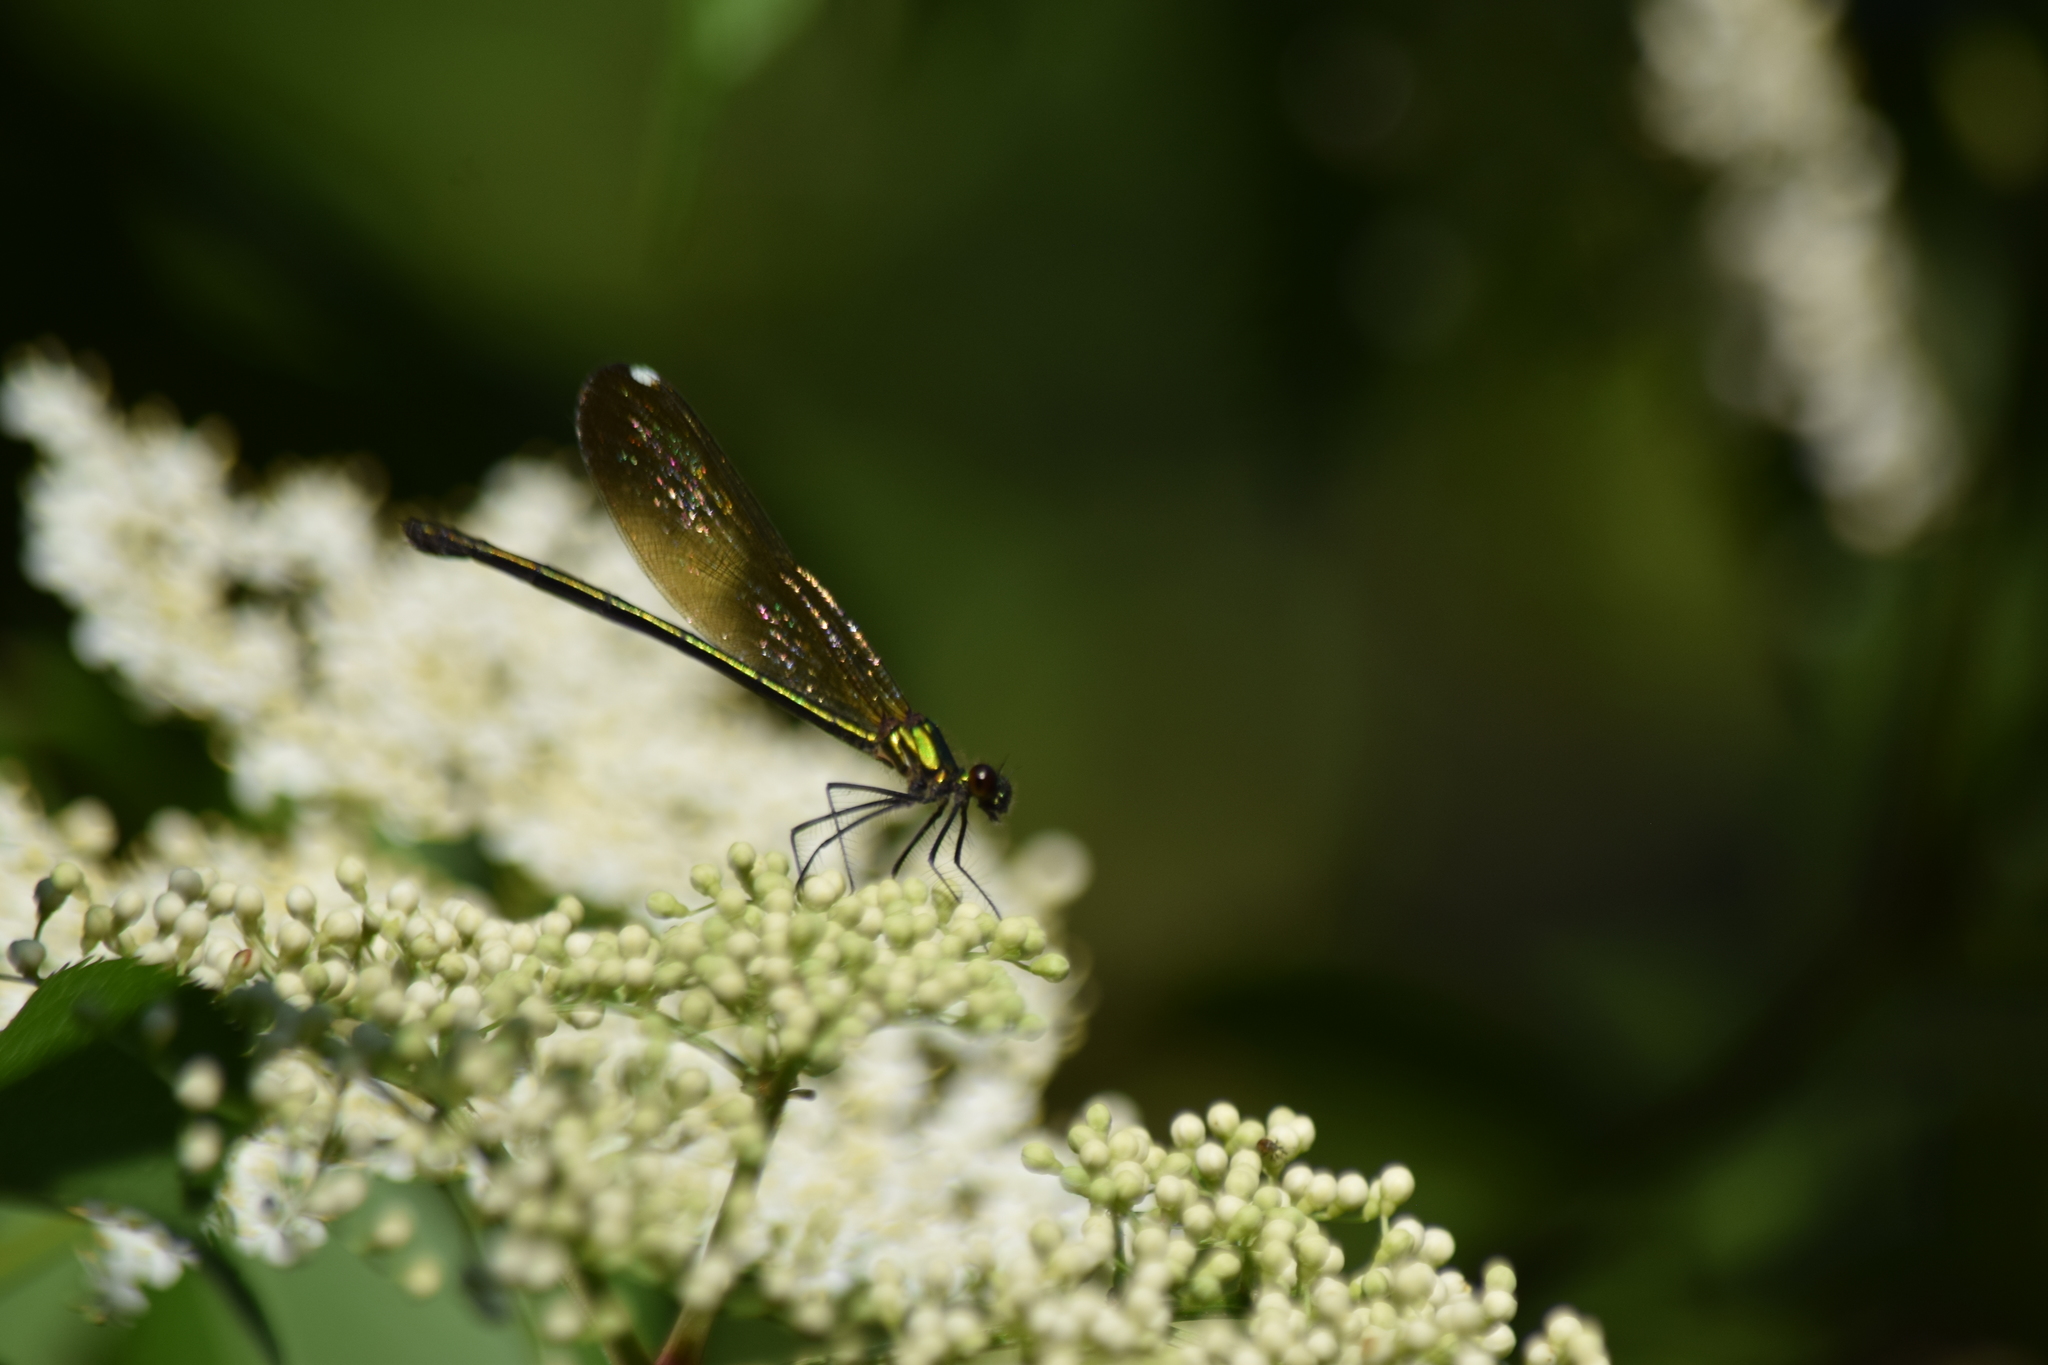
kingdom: Animalia
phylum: Arthropoda
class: Insecta
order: Odonata
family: Calopterygidae
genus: Calopteryx
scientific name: Calopteryx dimidiata
